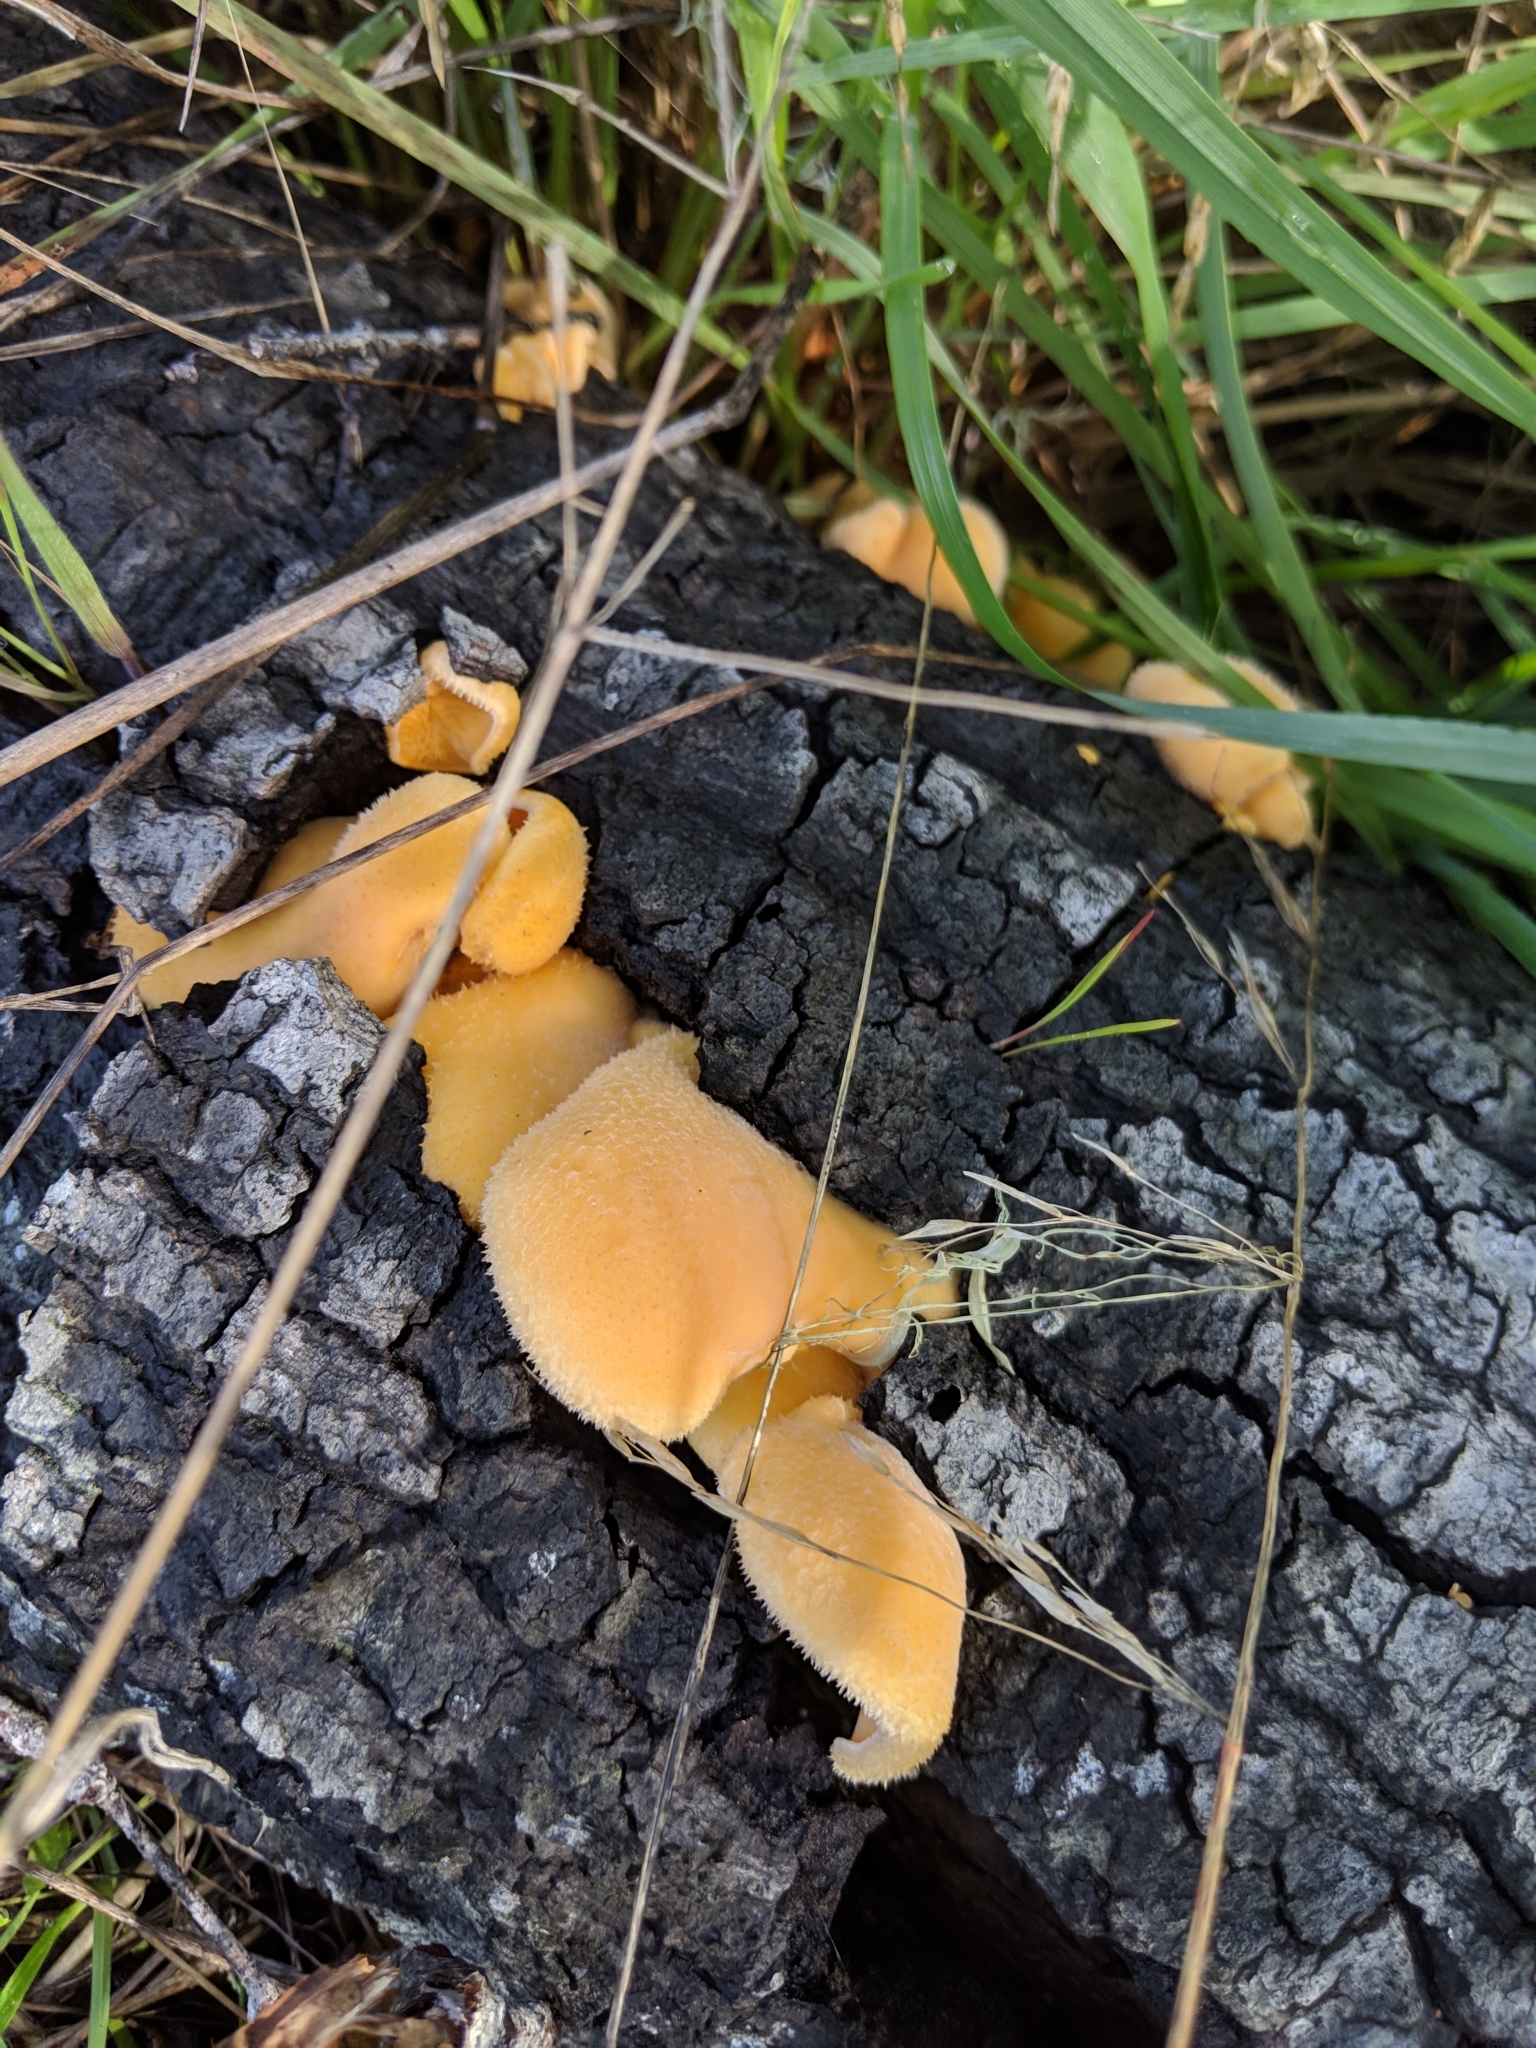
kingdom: Fungi
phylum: Basidiomycota
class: Agaricomycetes
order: Agaricales
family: Phyllotopsidaceae
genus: Phyllotopsis
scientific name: Phyllotopsis nidulans
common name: Orange mock oyster
